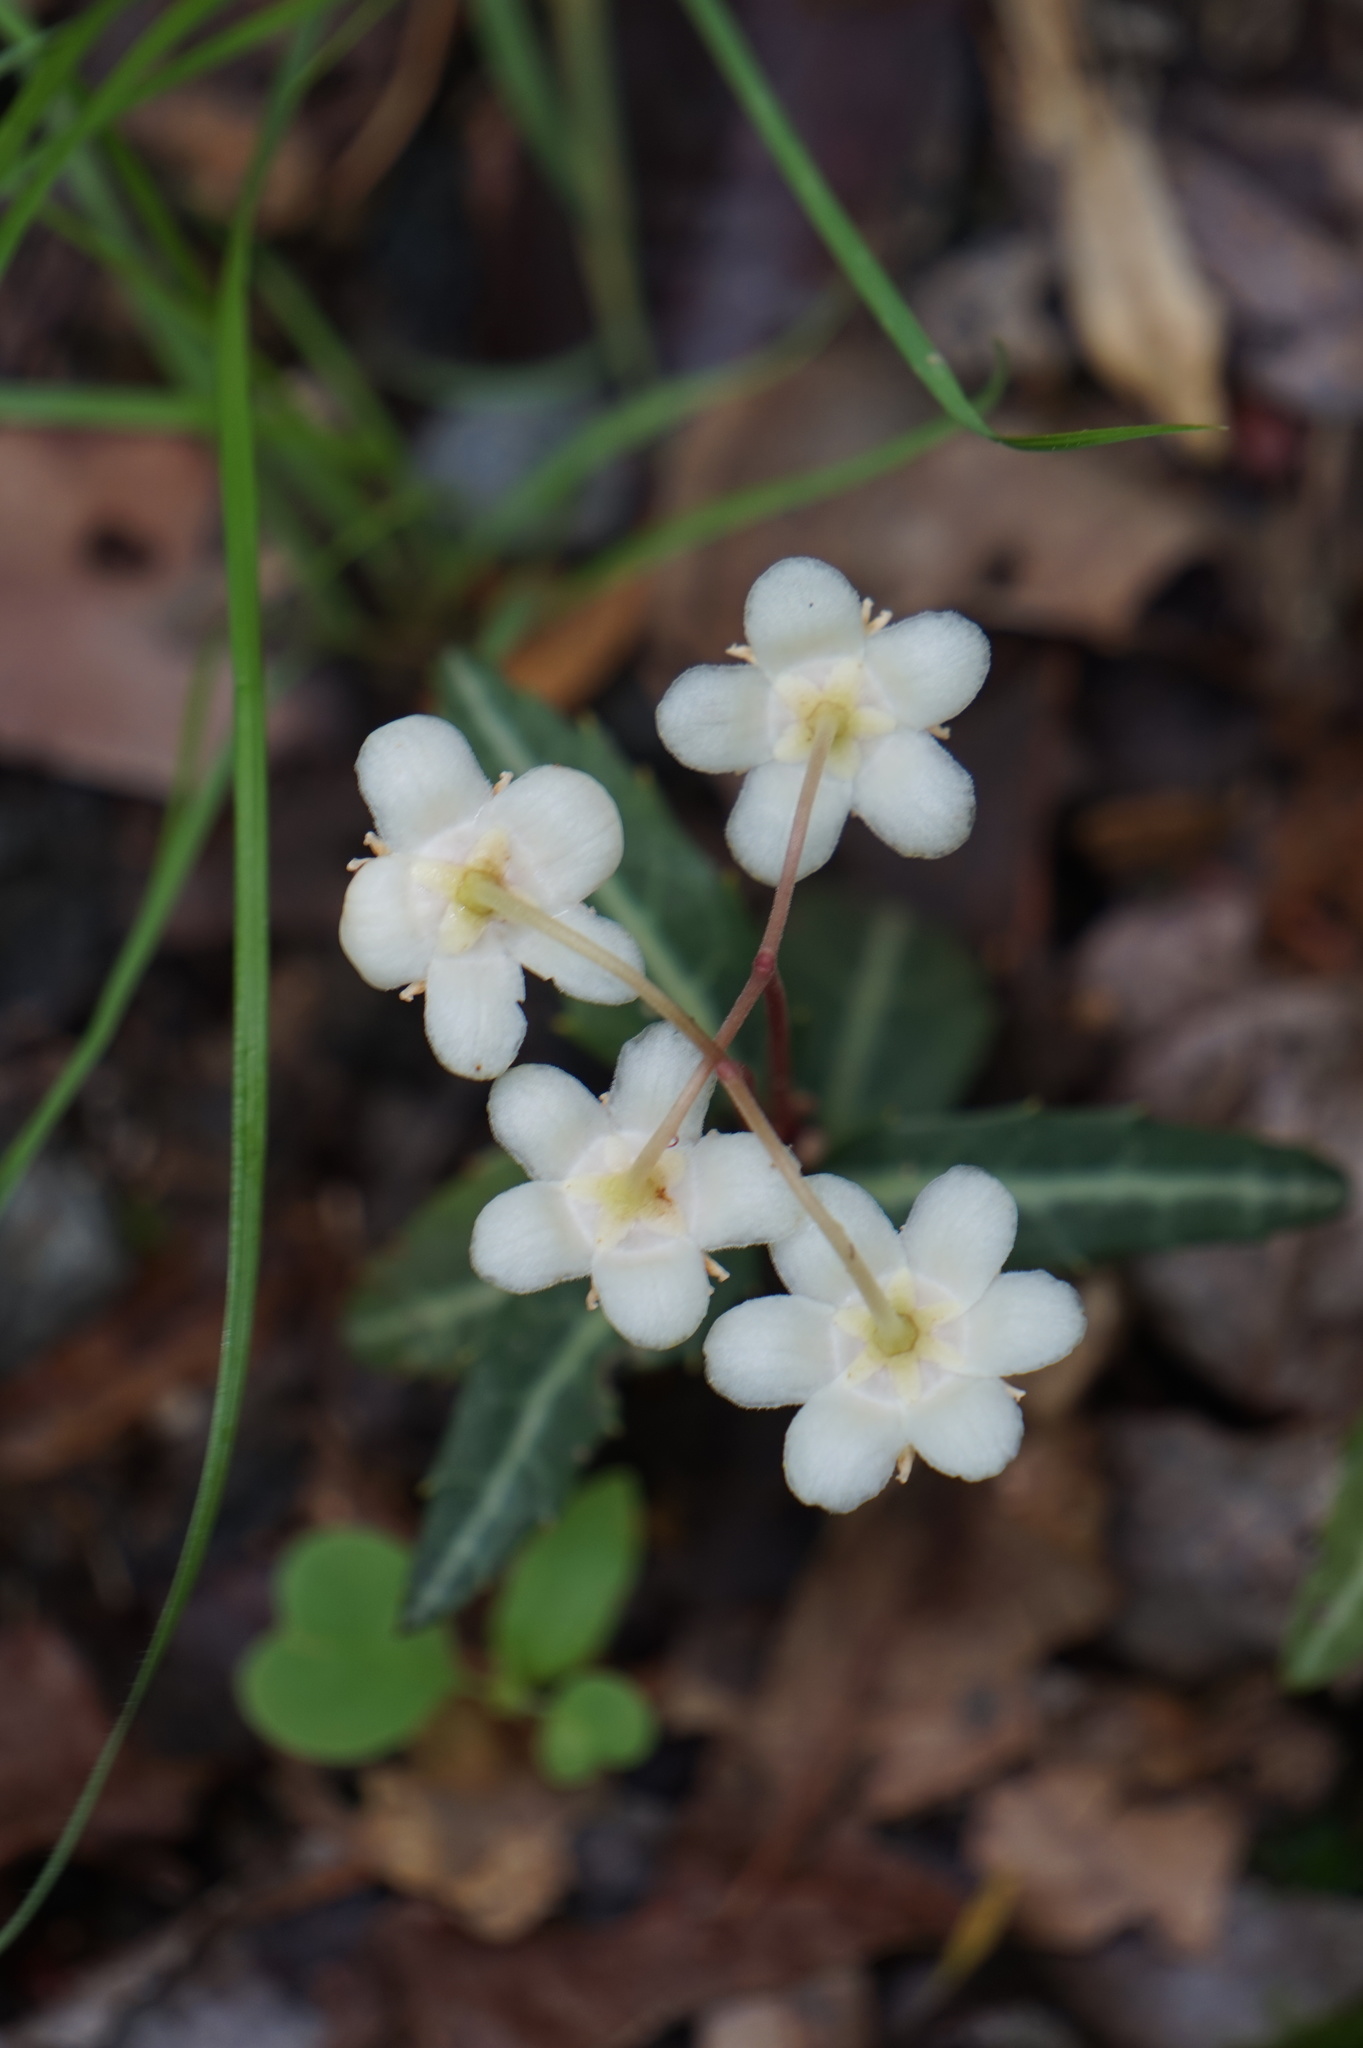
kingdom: Plantae
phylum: Tracheophyta
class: Magnoliopsida
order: Ericales
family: Ericaceae
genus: Chimaphila
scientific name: Chimaphila maculata
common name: Spotted pipsissewa
